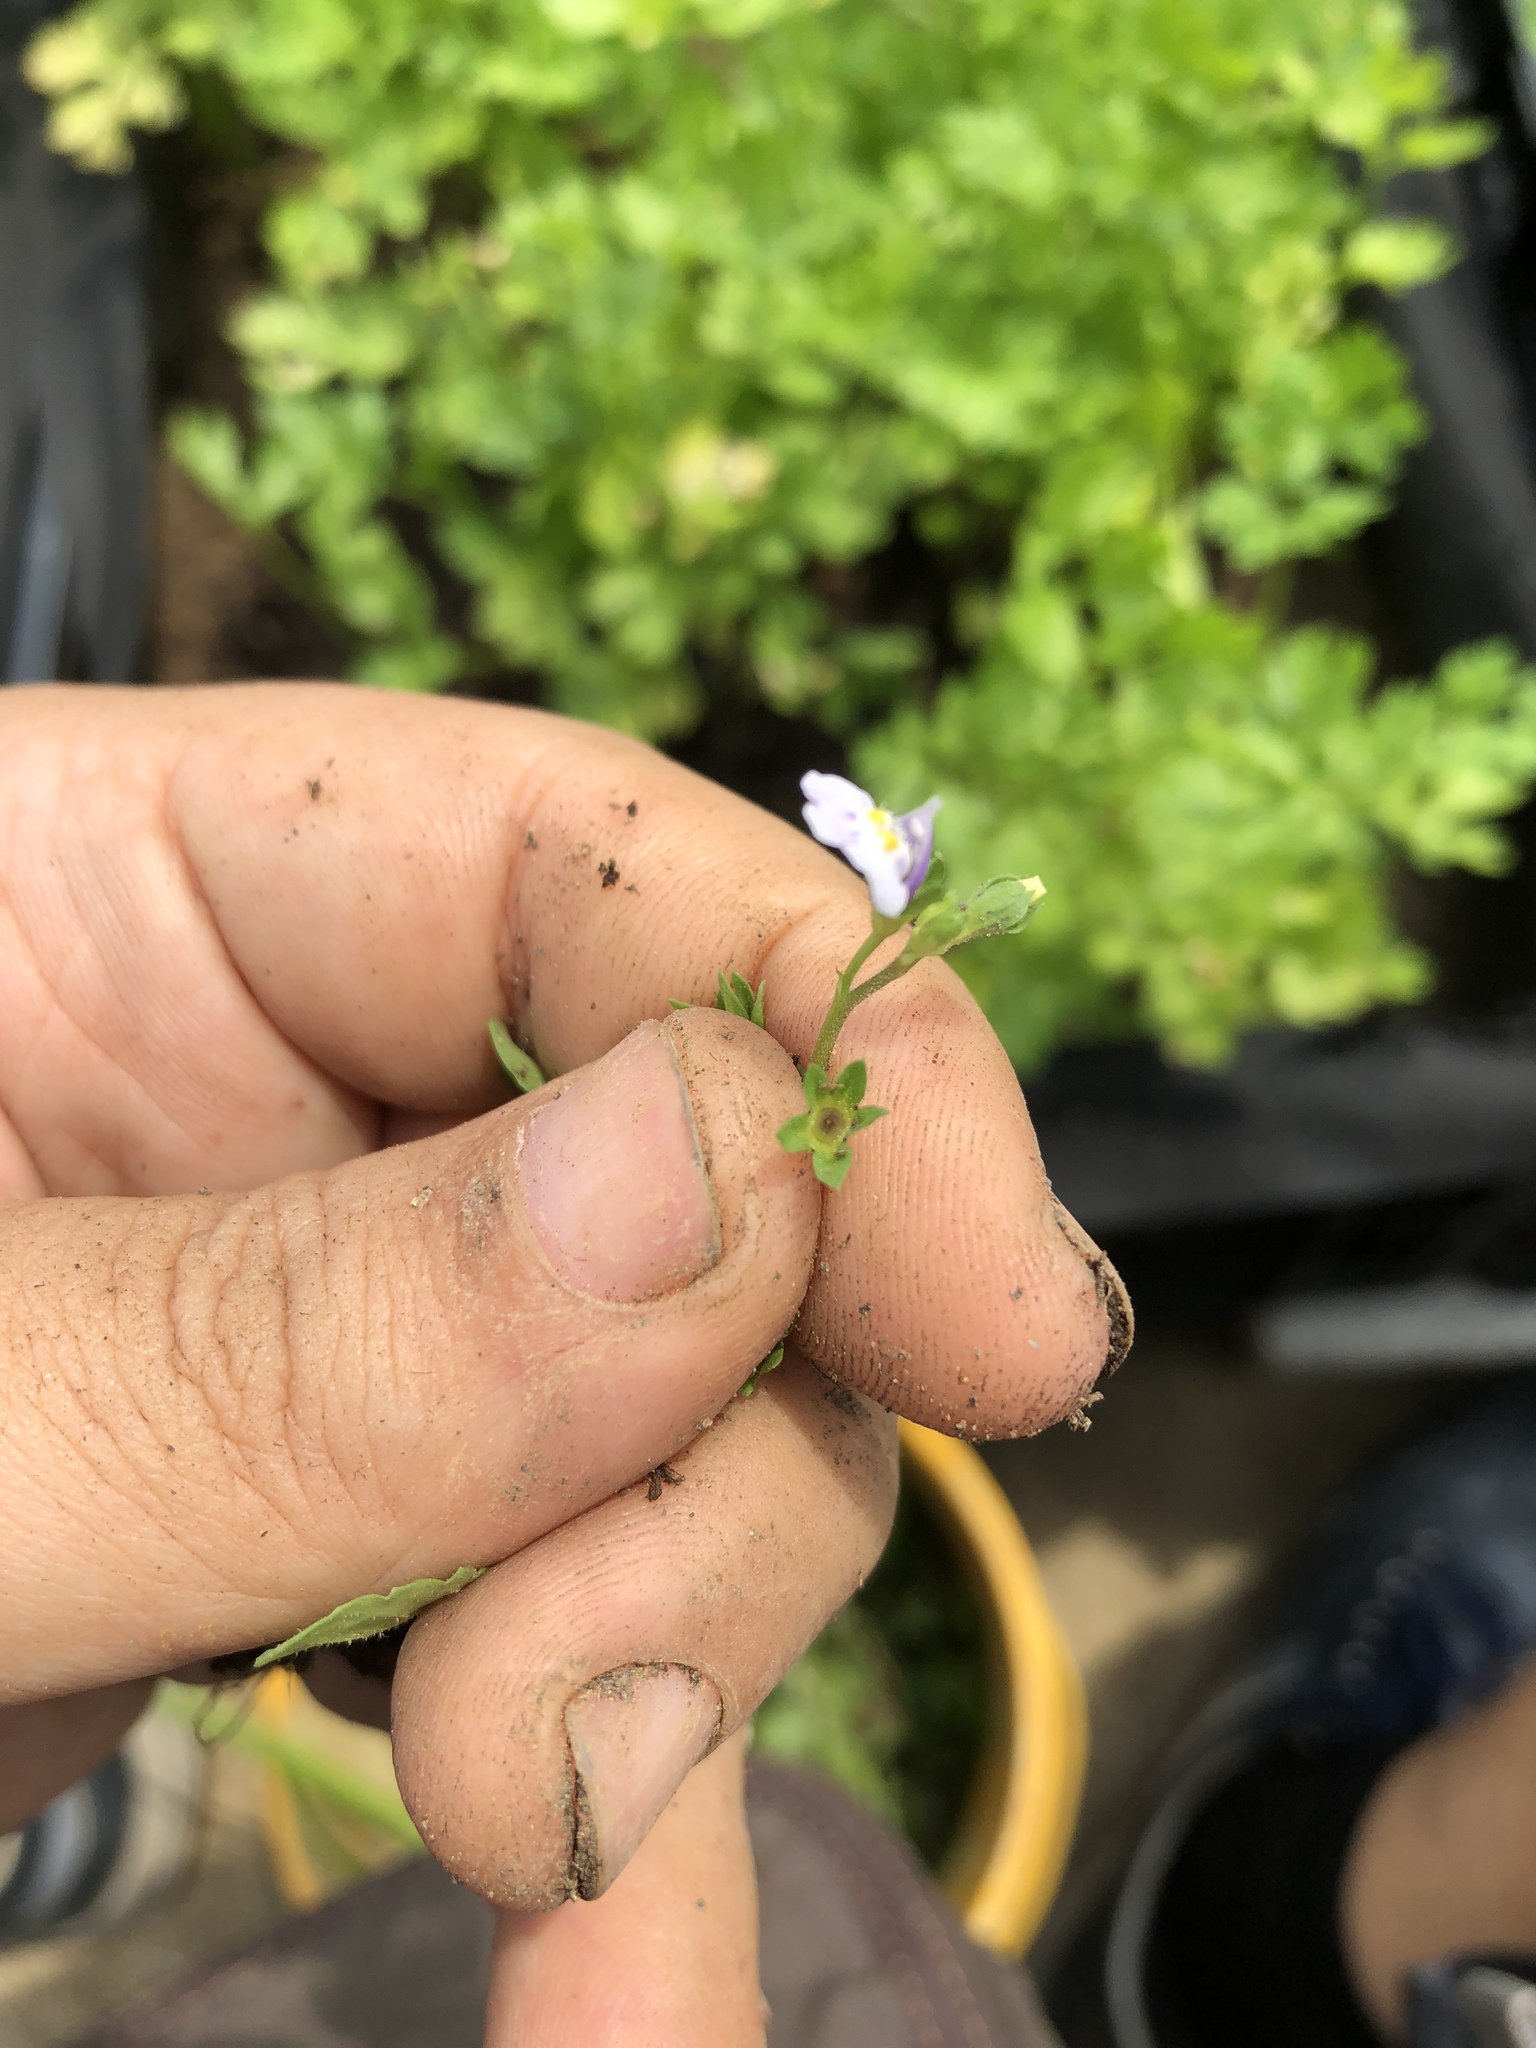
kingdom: Plantae
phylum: Tracheophyta
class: Magnoliopsida
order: Lamiales
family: Mazaceae
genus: Mazus
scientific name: Mazus pumilus
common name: Japanese mazus
